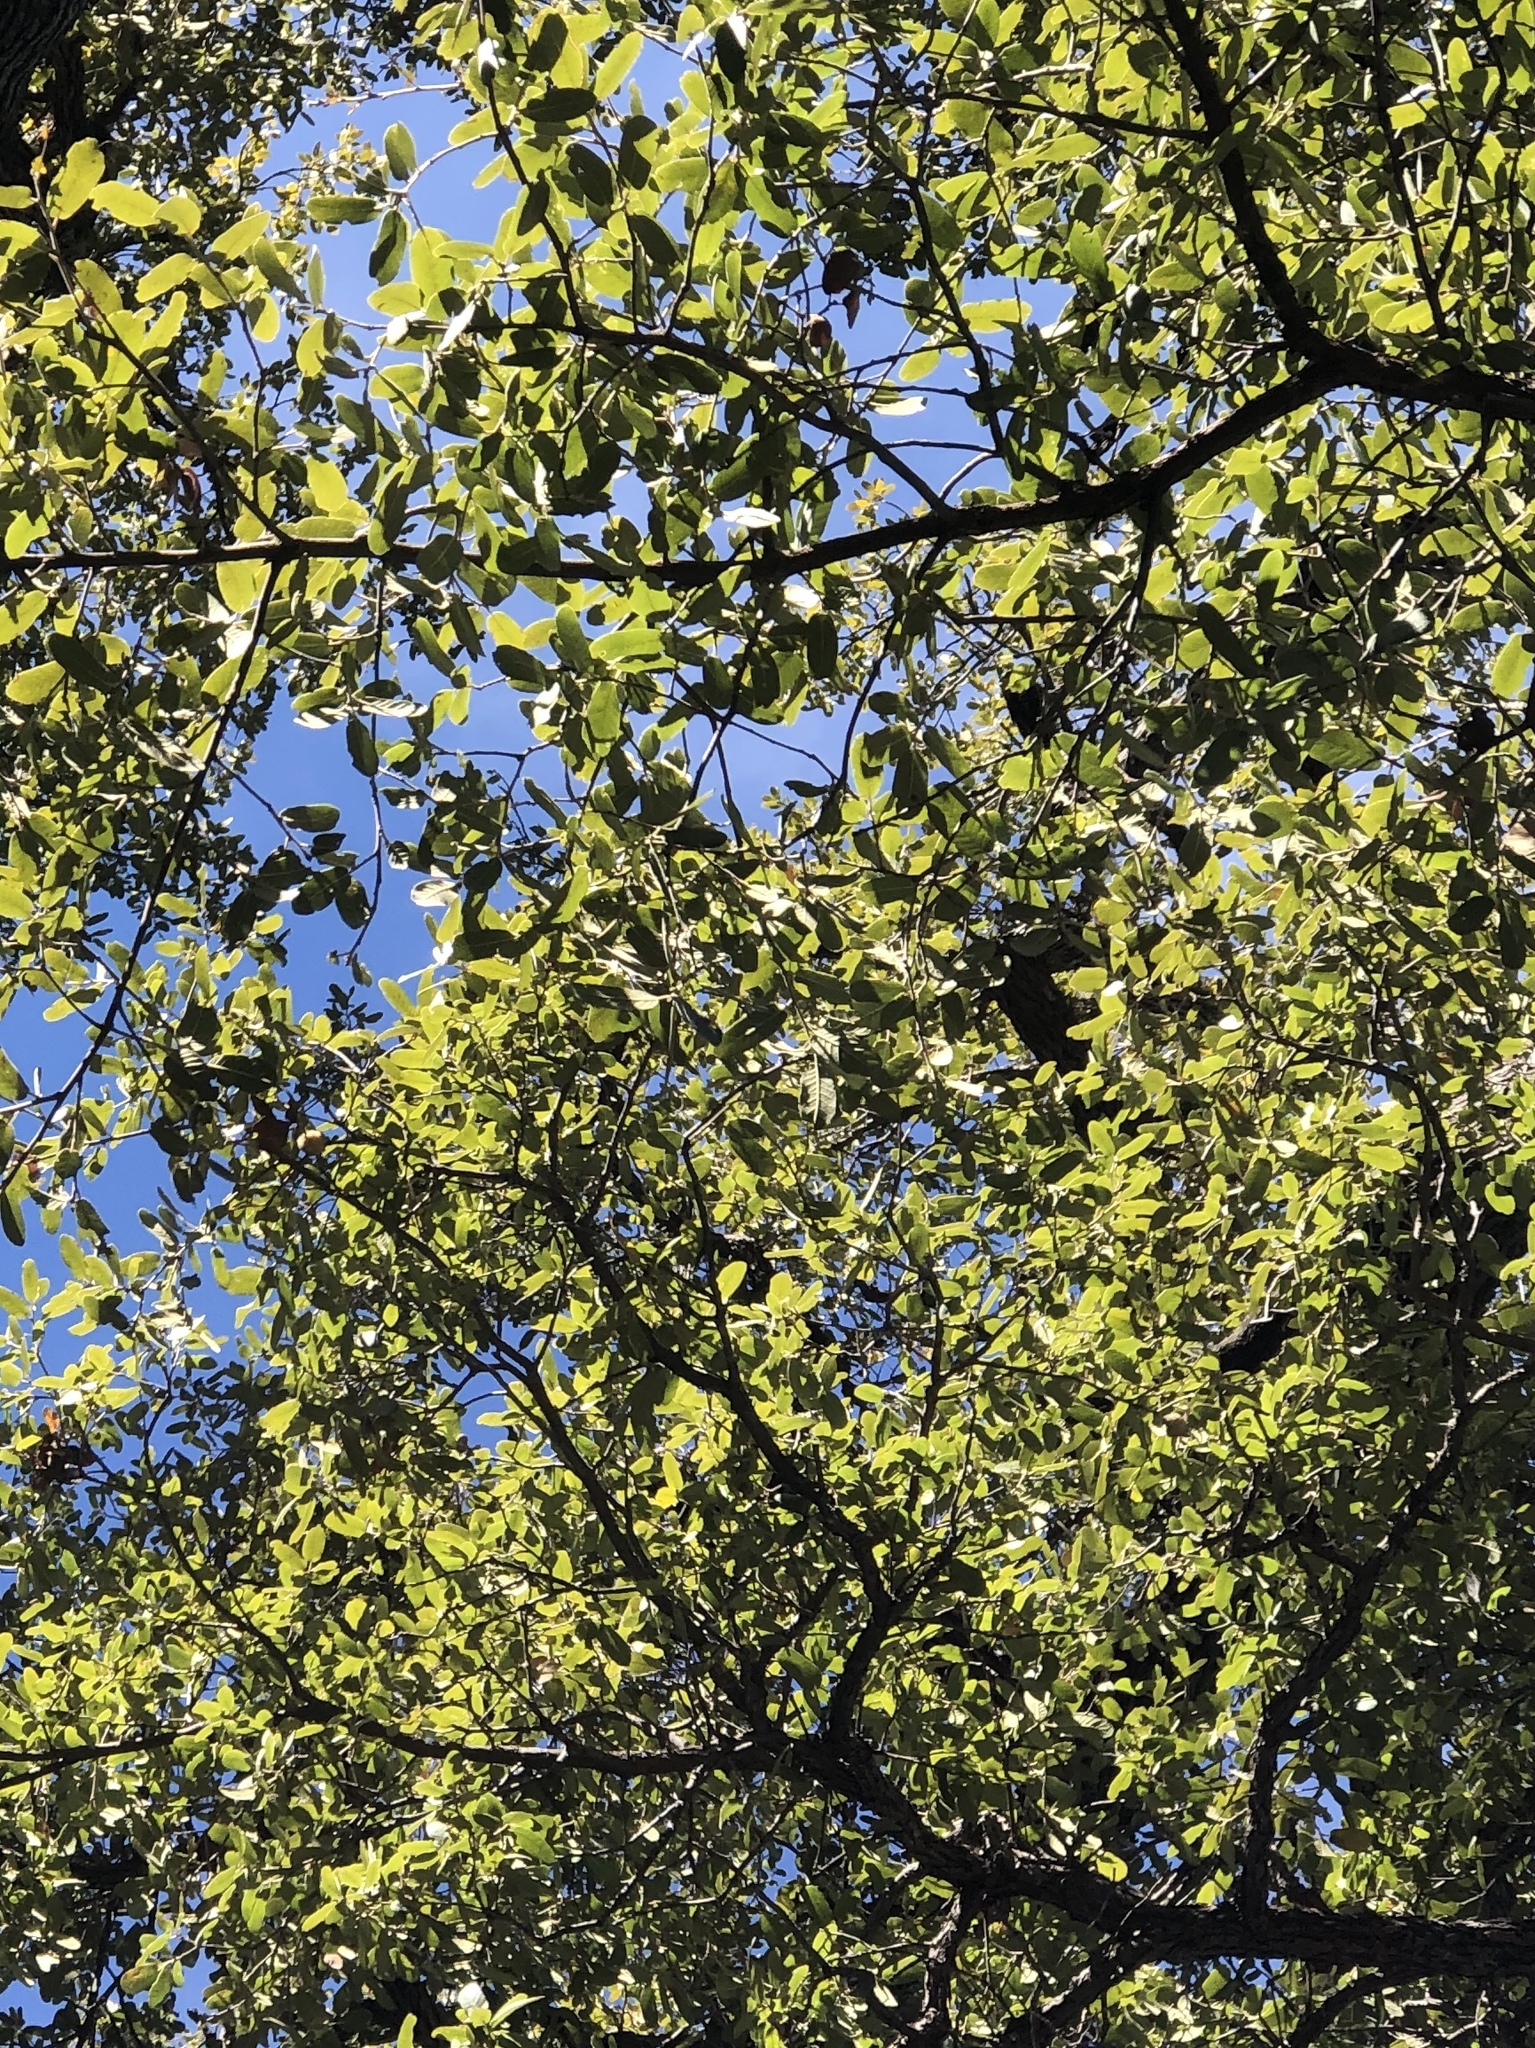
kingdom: Plantae
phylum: Tracheophyta
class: Magnoliopsida
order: Fagales
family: Fagaceae
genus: Quercus
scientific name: Quercus arizonica
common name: Arizona white oak
